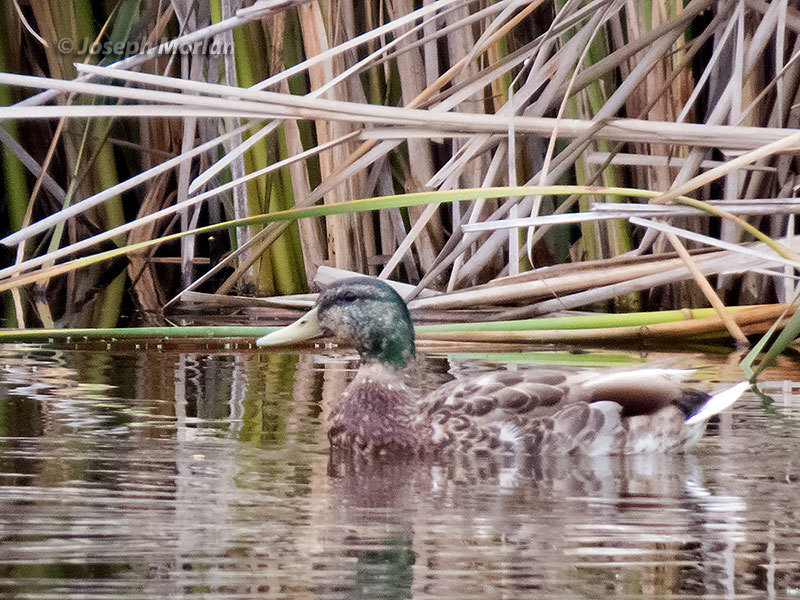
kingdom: Animalia
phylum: Chordata
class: Aves
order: Anseriformes
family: Anatidae
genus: Anas
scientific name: Anas platyrhynchos
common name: Mallard
